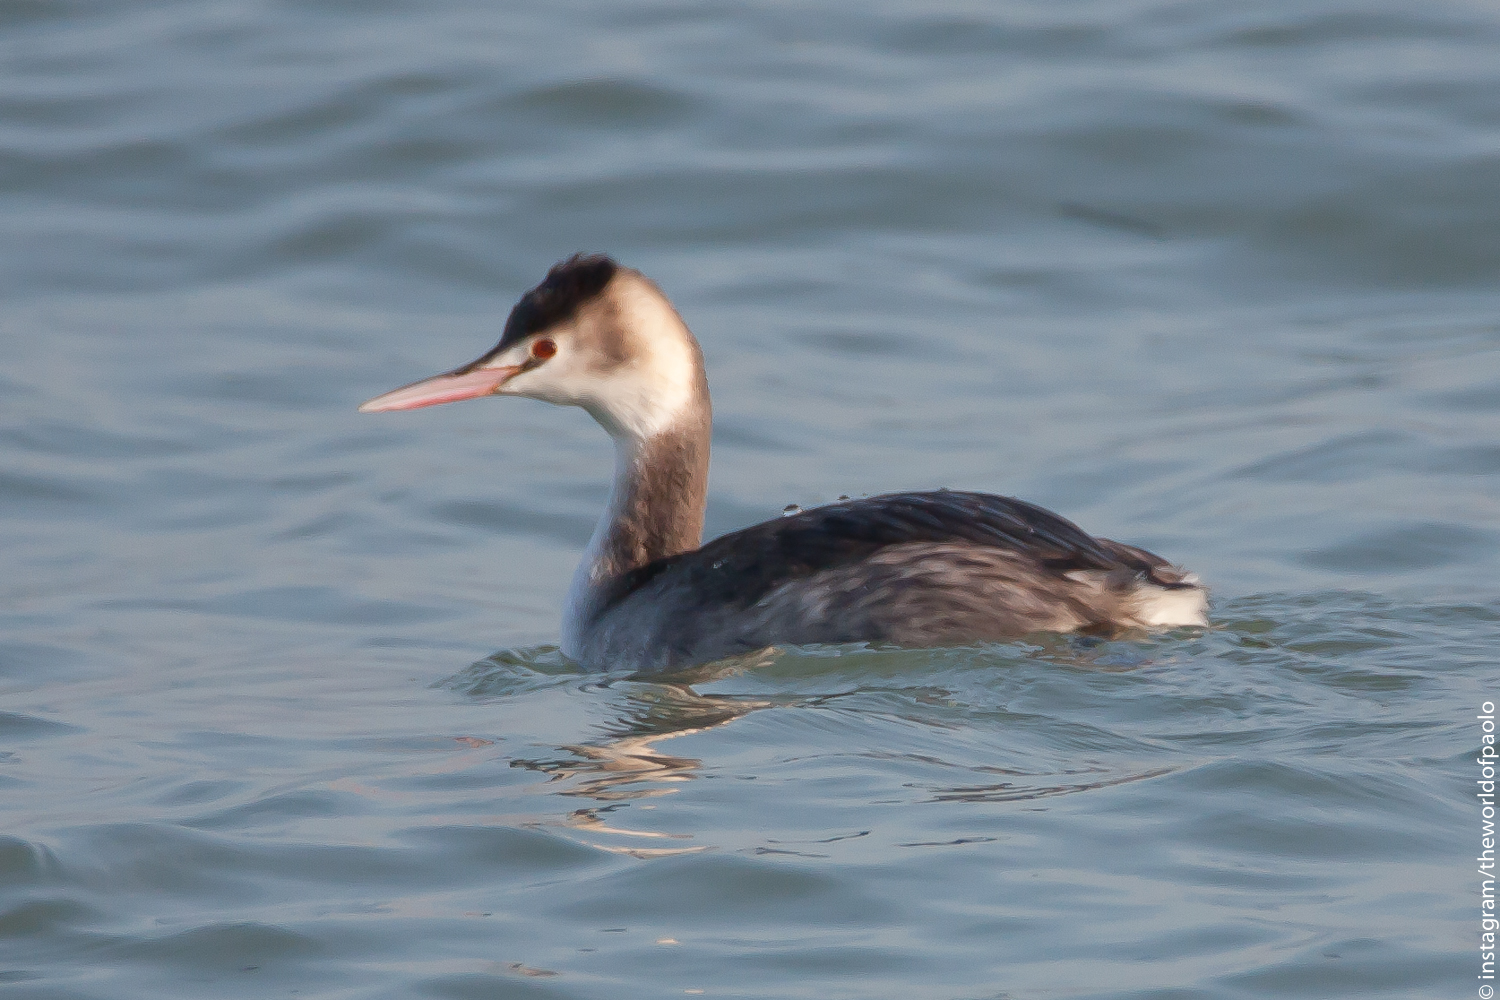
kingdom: Animalia
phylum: Chordata
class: Aves
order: Podicipediformes
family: Podicipedidae
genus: Podiceps
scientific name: Podiceps cristatus
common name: Great crested grebe
